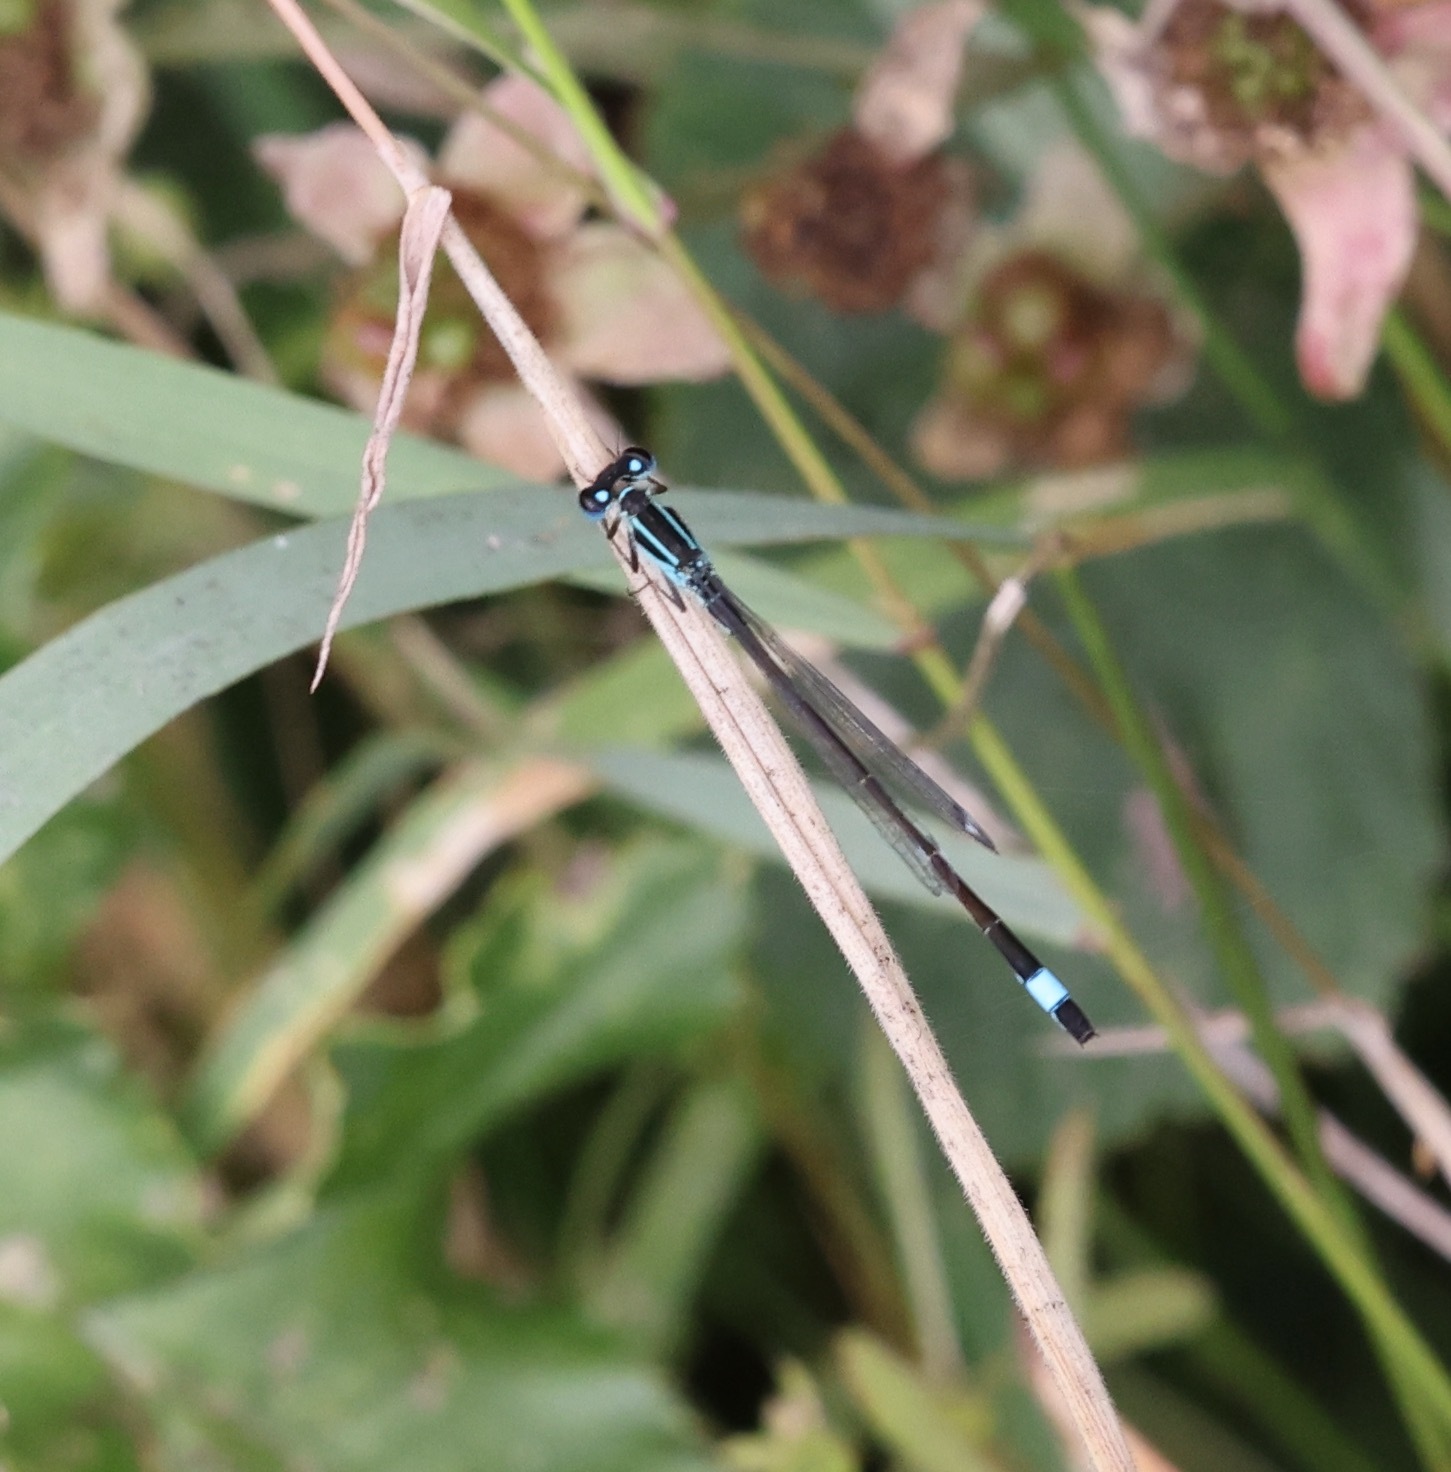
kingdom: Animalia
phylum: Arthropoda
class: Insecta
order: Odonata
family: Coenagrionidae
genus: Ischnura
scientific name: Ischnura elegans
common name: Blue-tailed damselfly
